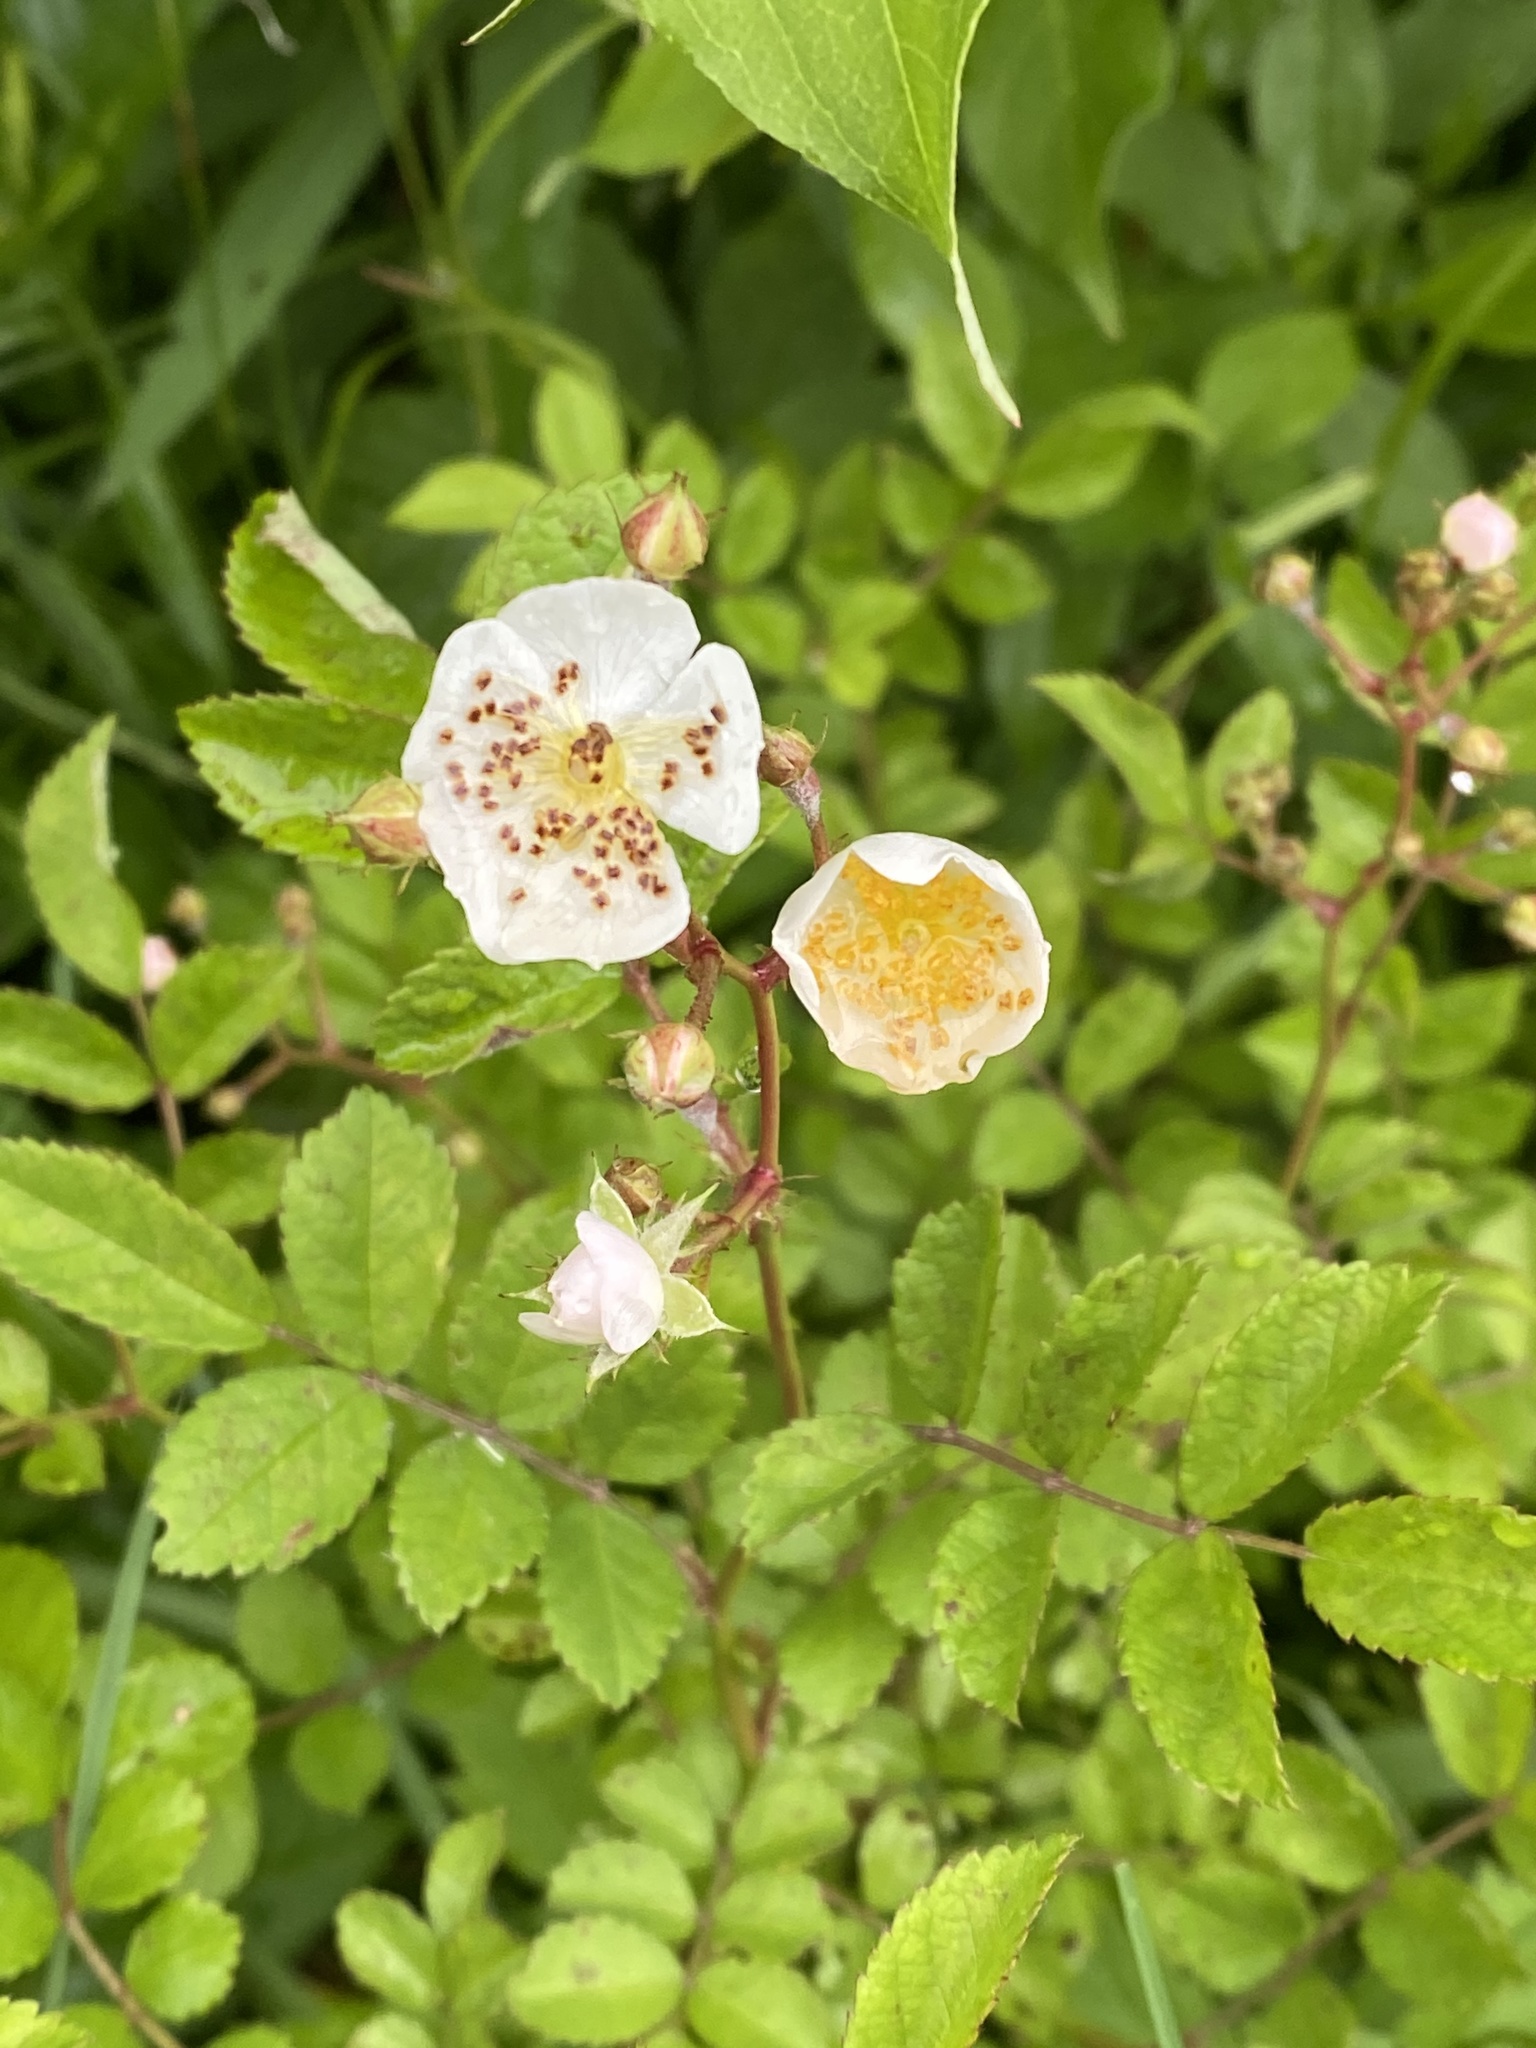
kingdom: Plantae
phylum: Tracheophyta
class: Magnoliopsida
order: Rosales
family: Rosaceae
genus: Rosa
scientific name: Rosa multiflora
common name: Multiflora rose
